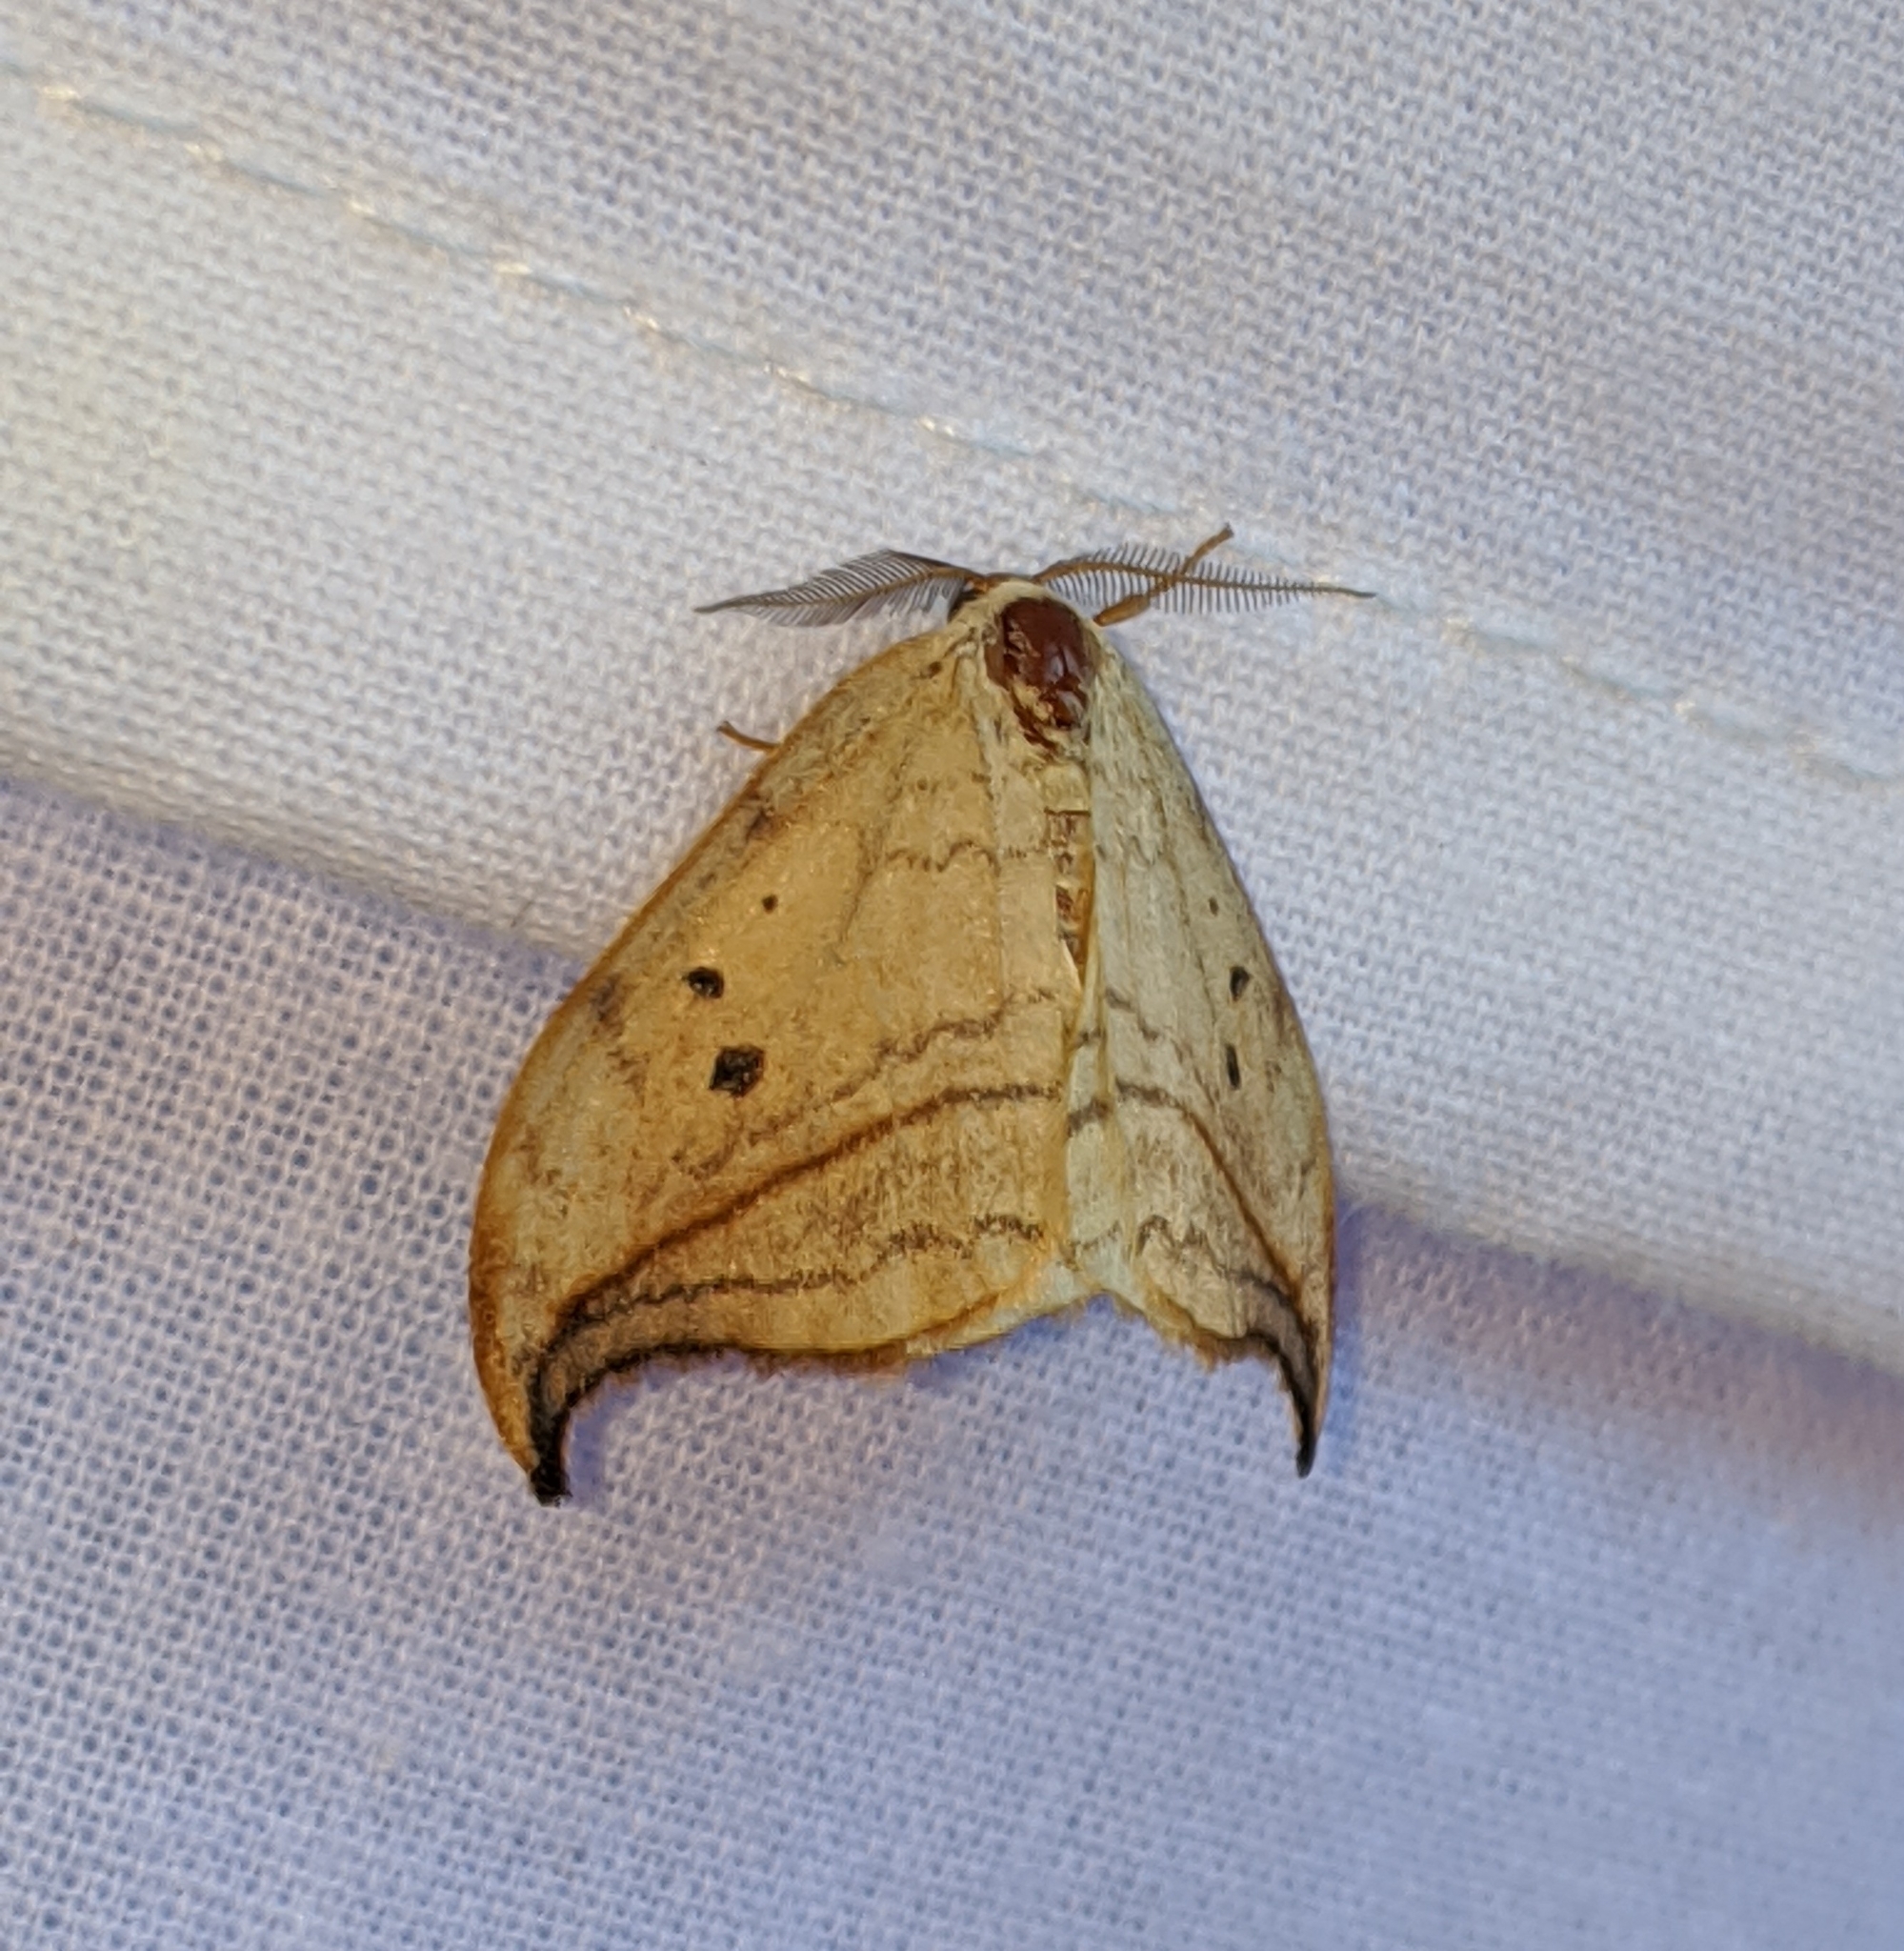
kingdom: Animalia
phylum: Arthropoda
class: Insecta
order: Lepidoptera
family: Drepanidae
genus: Drepana
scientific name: Drepana arcuata
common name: Arched hooktip moth
